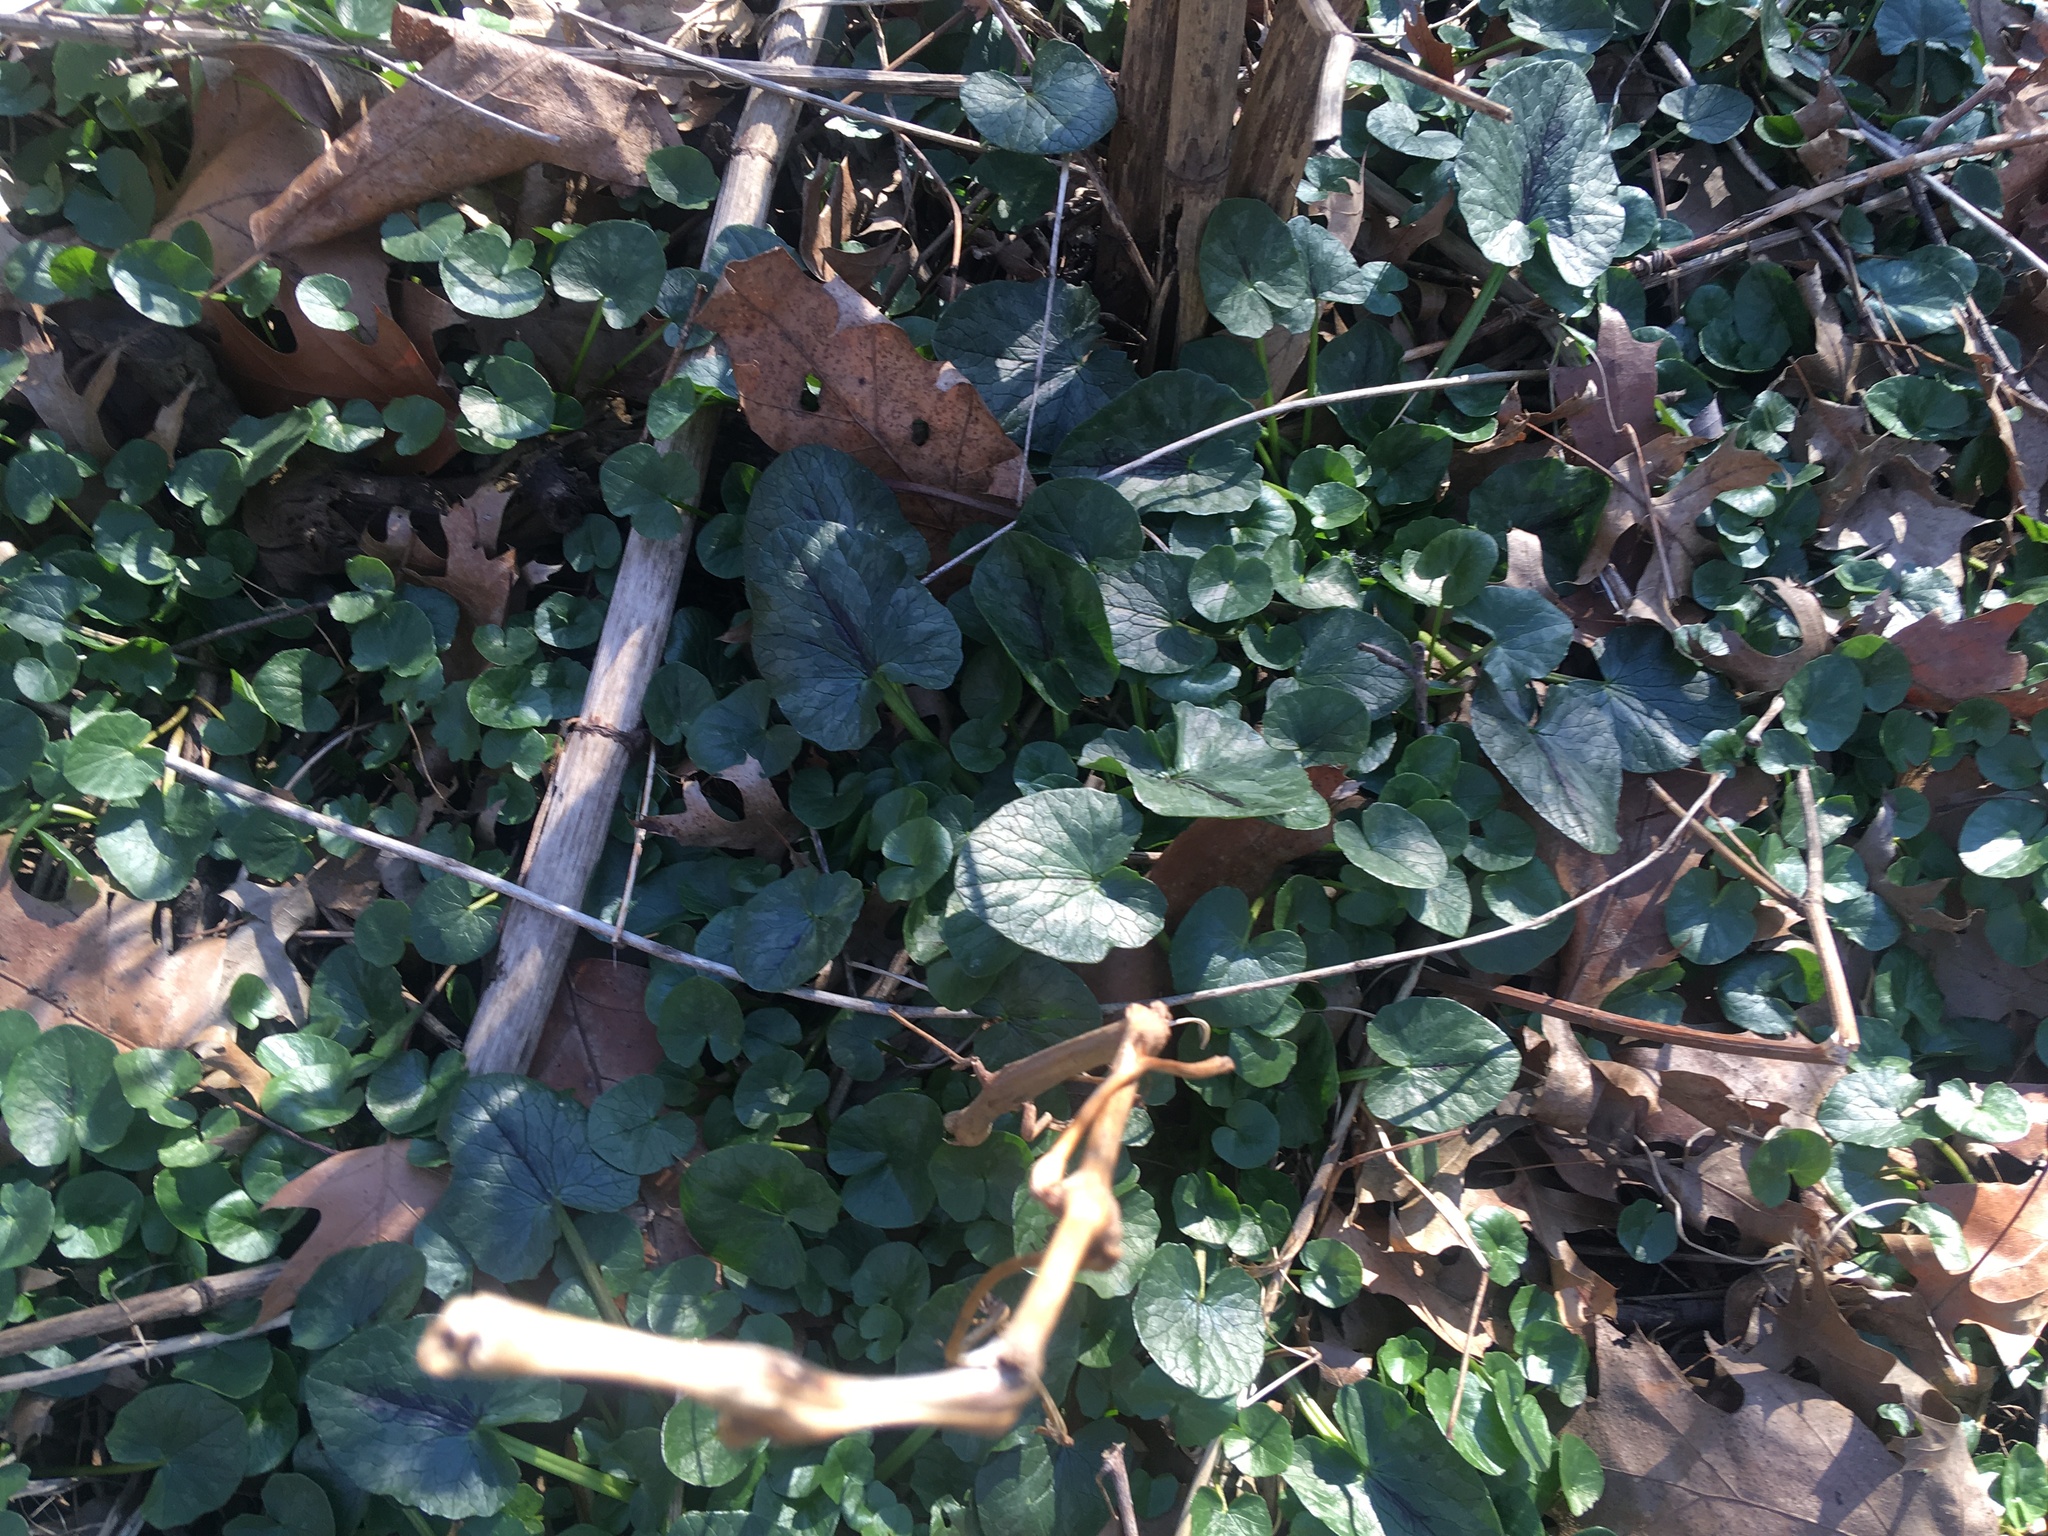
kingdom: Plantae
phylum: Tracheophyta
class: Magnoliopsida
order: Ranunculales
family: Ranunculaceae
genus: Ficaria
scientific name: Ficaria verna
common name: Lesser celandine
